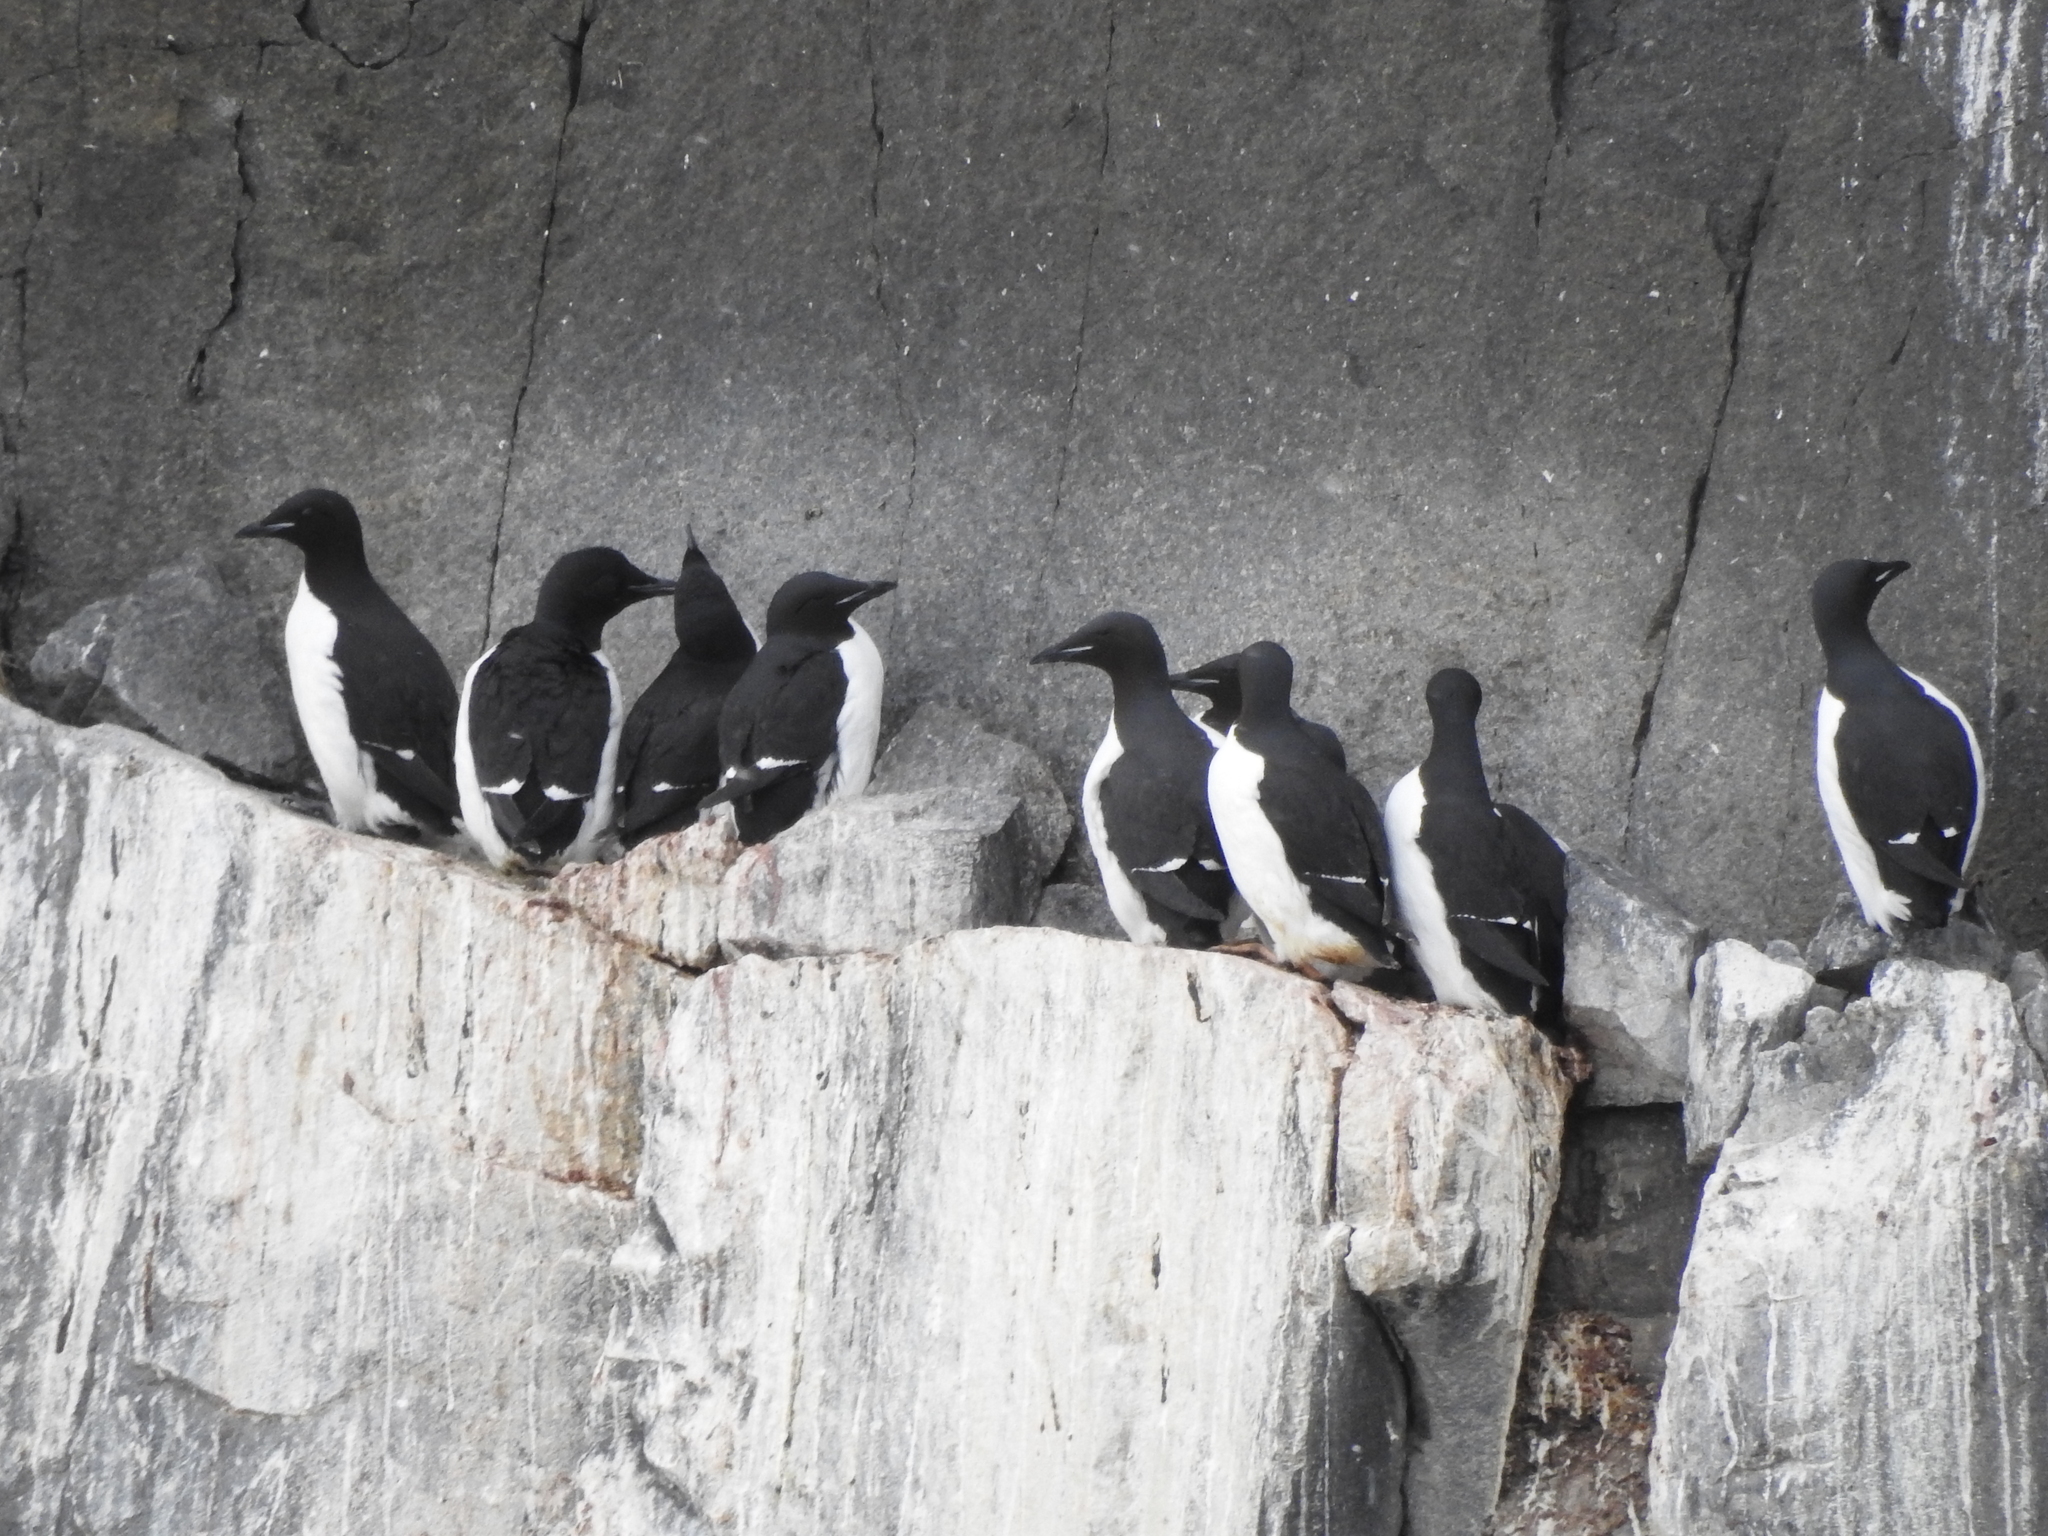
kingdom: Animalia
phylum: Chordata
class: Aves
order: Charadriiformes
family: Alcidae
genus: Uria
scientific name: Uria lomvia
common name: Thick-billed murre
